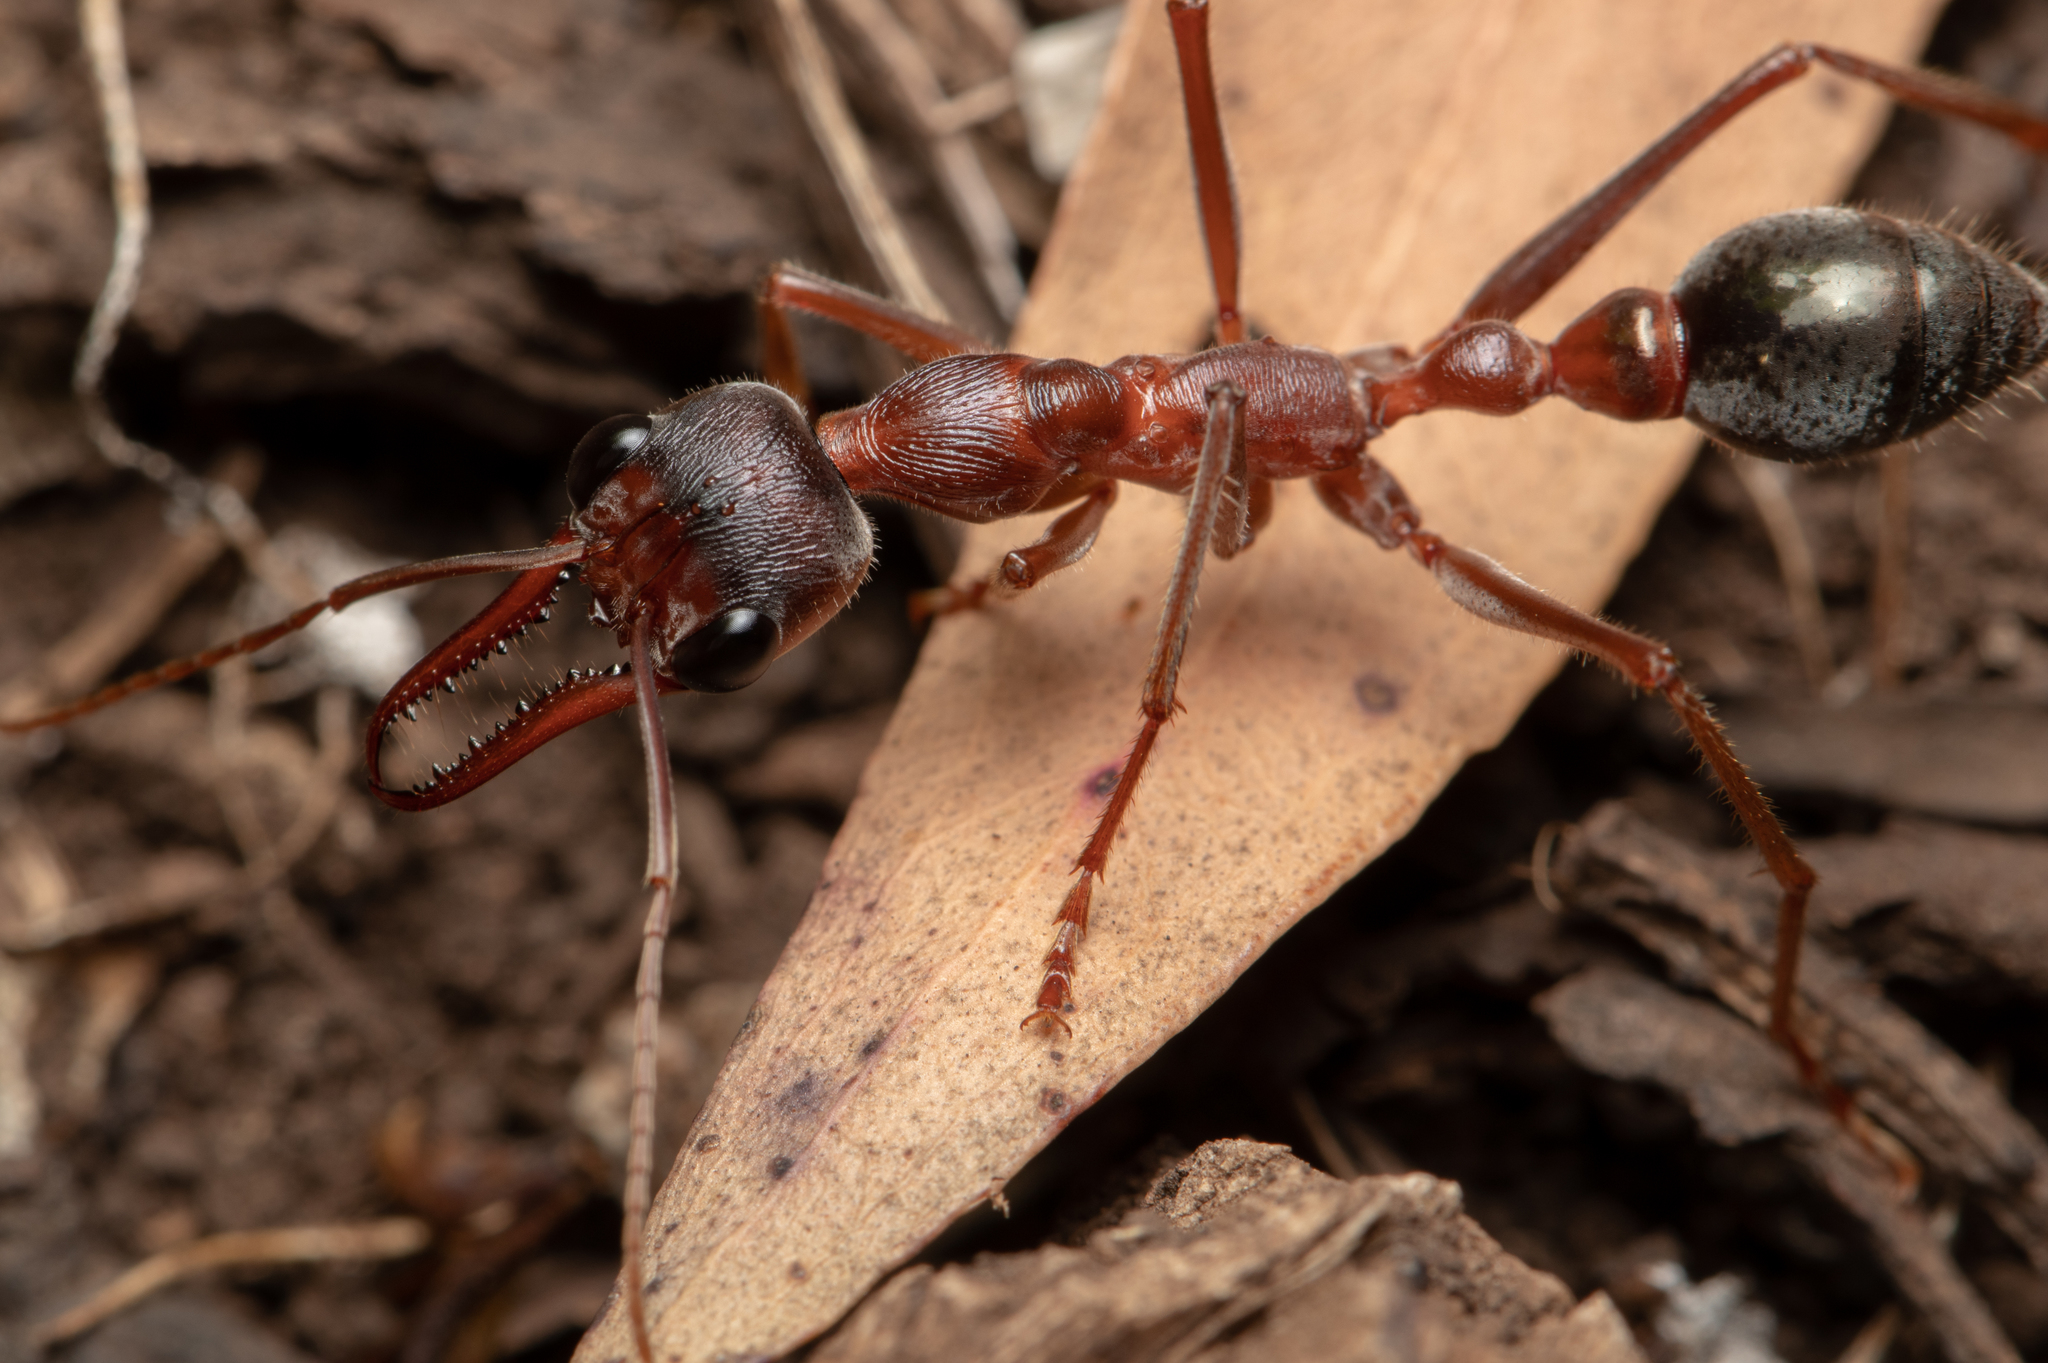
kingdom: Animalia
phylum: Arthropoda
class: Insecta
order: Hymenoptera
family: Formicidae
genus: Myrmecia
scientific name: Myrmecia brevinoda
